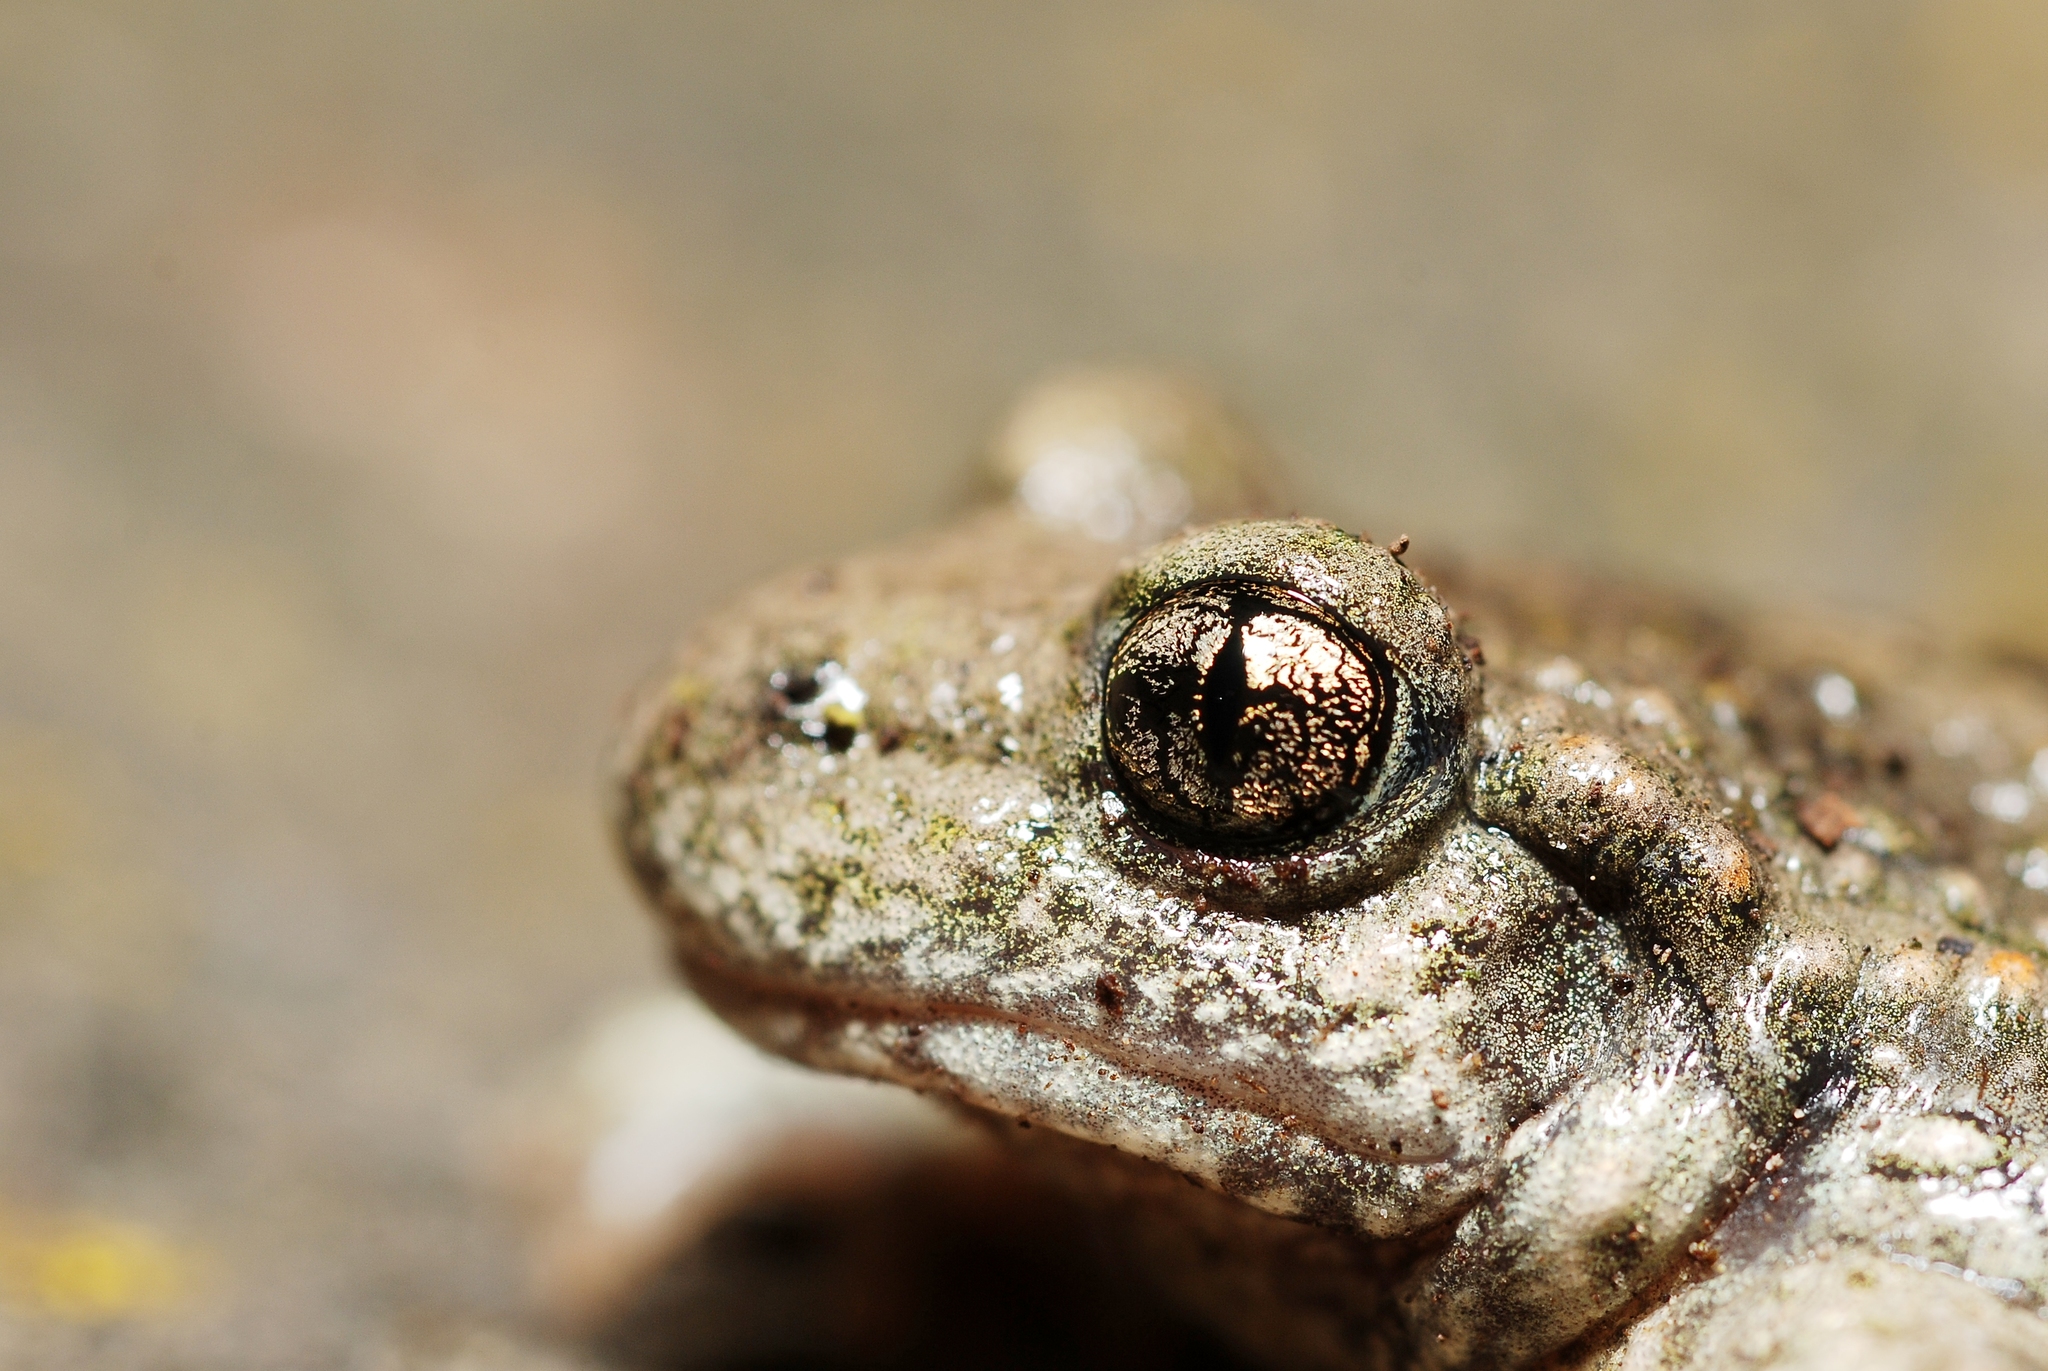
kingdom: Animalia
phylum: Chordata
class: Amphibia
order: Anura
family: Alytidae
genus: Alytes
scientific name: Alytes obstetricans
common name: Midwife toad
